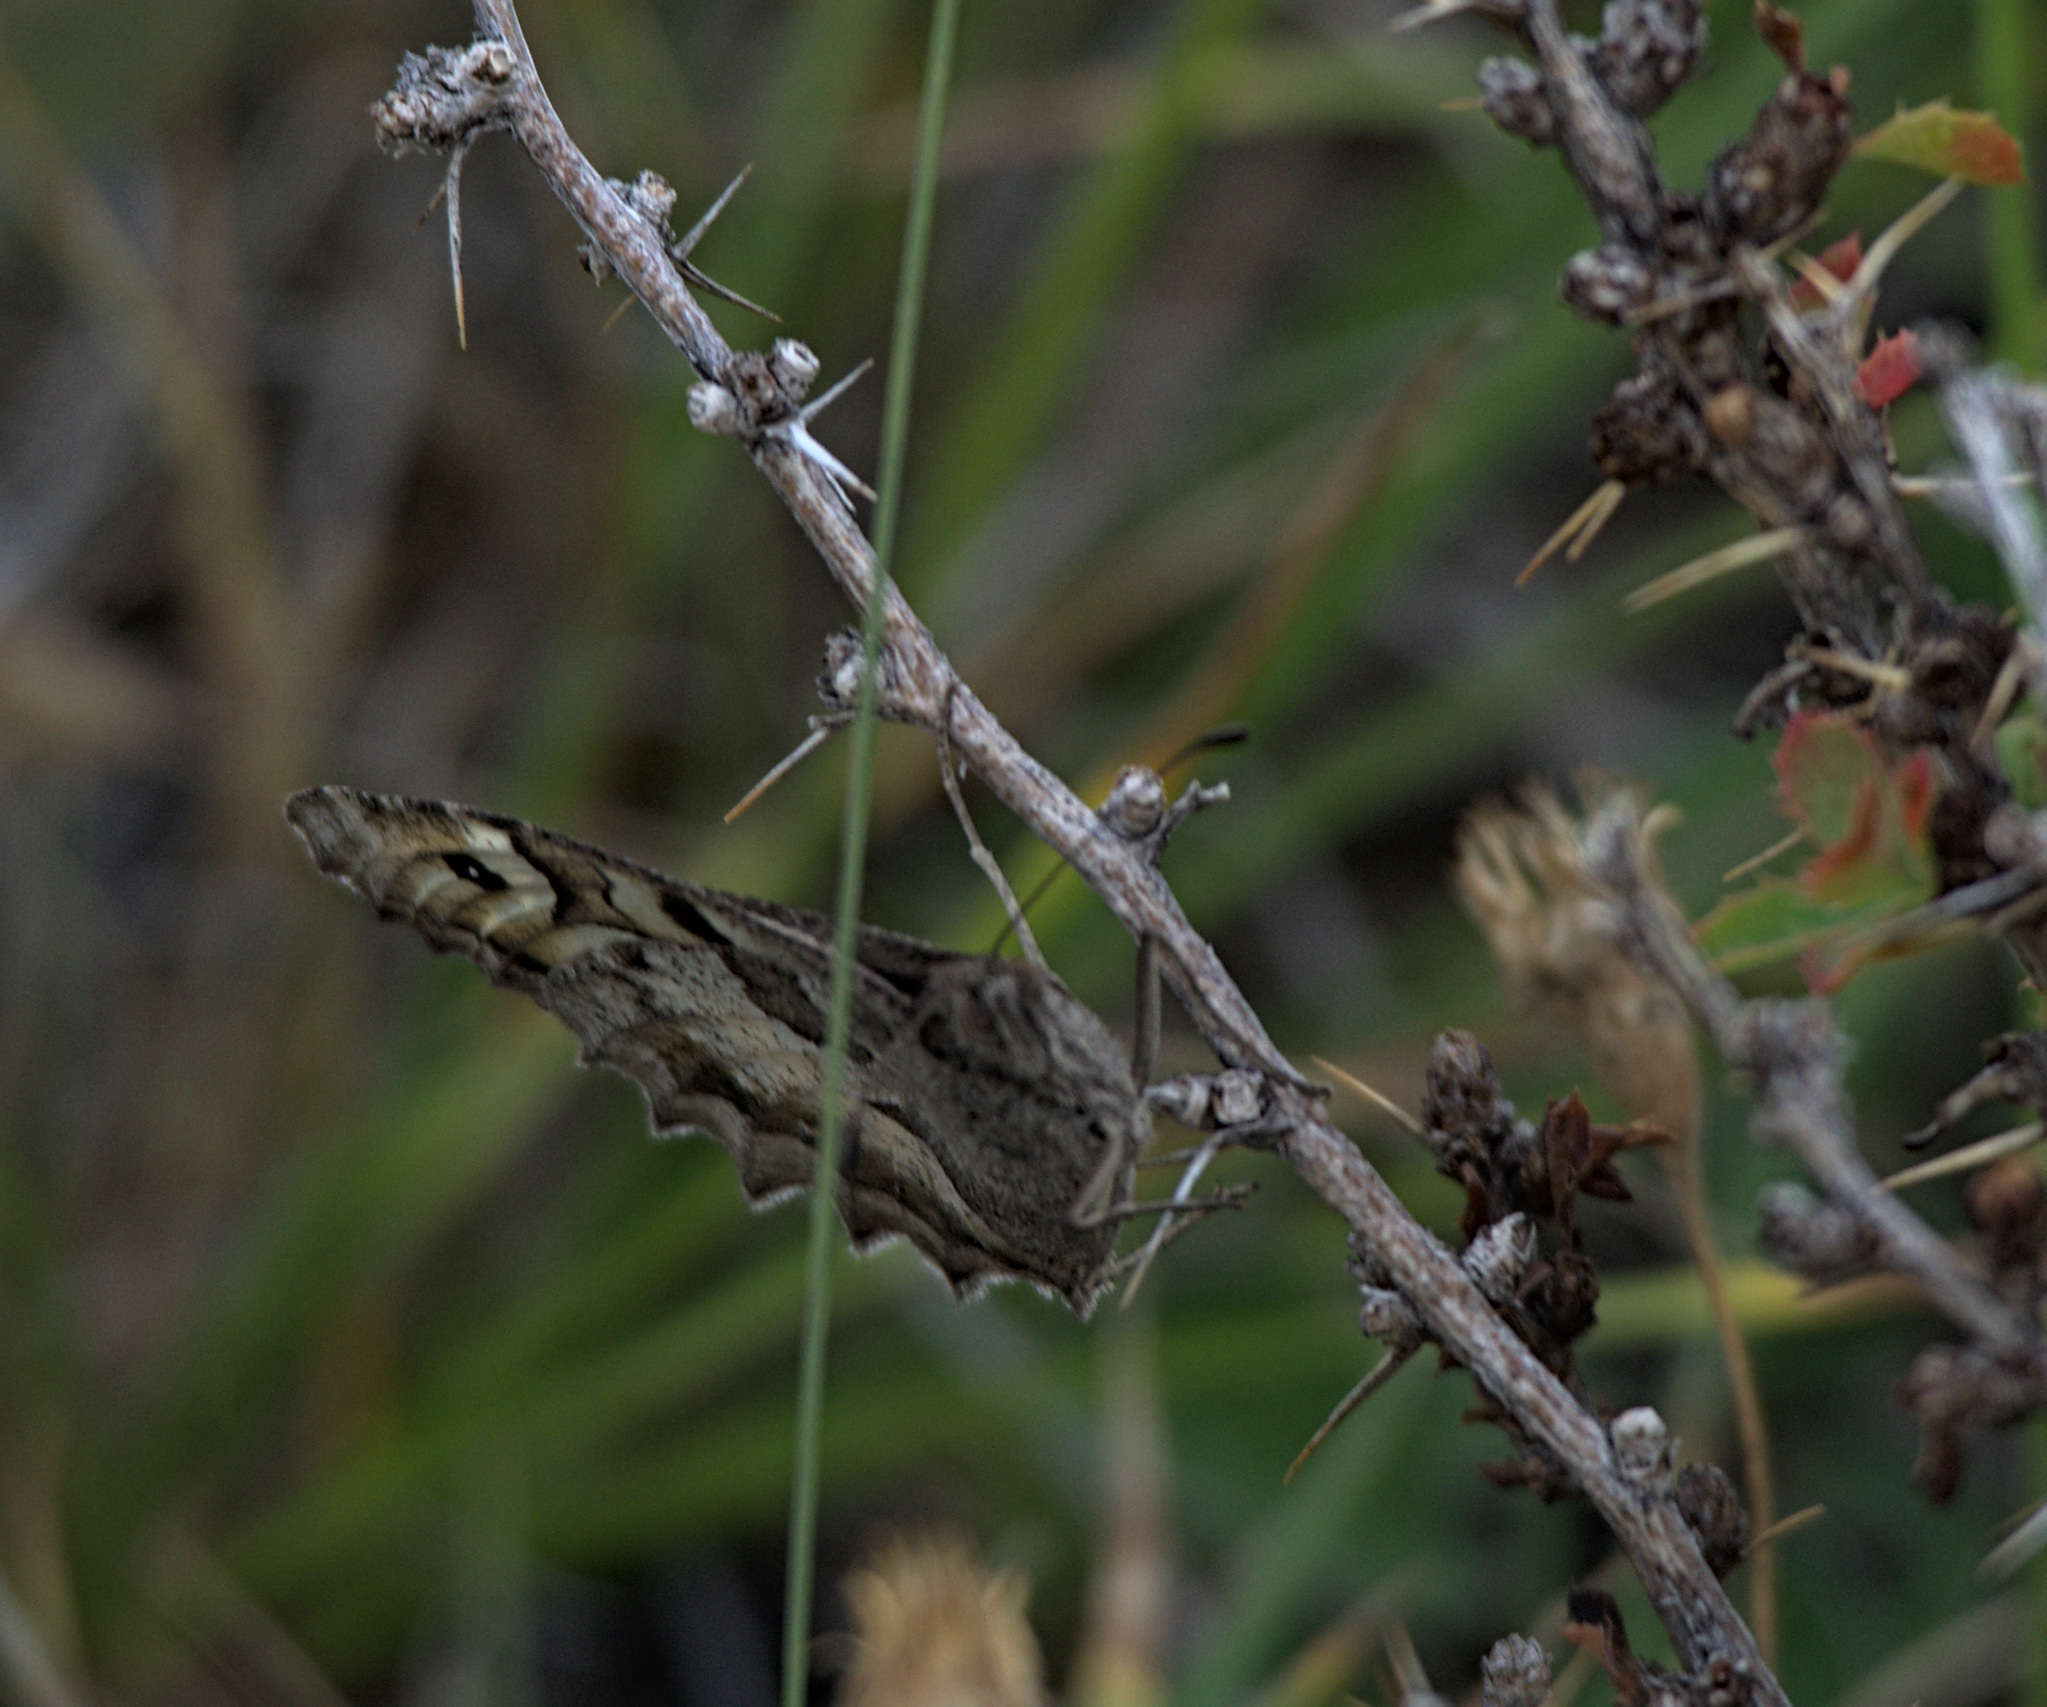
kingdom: Animalia
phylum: Arthropoda
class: Insecta
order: Lepidoptera
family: Nymphalidae
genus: Satyrus
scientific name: Satyrus briseis
